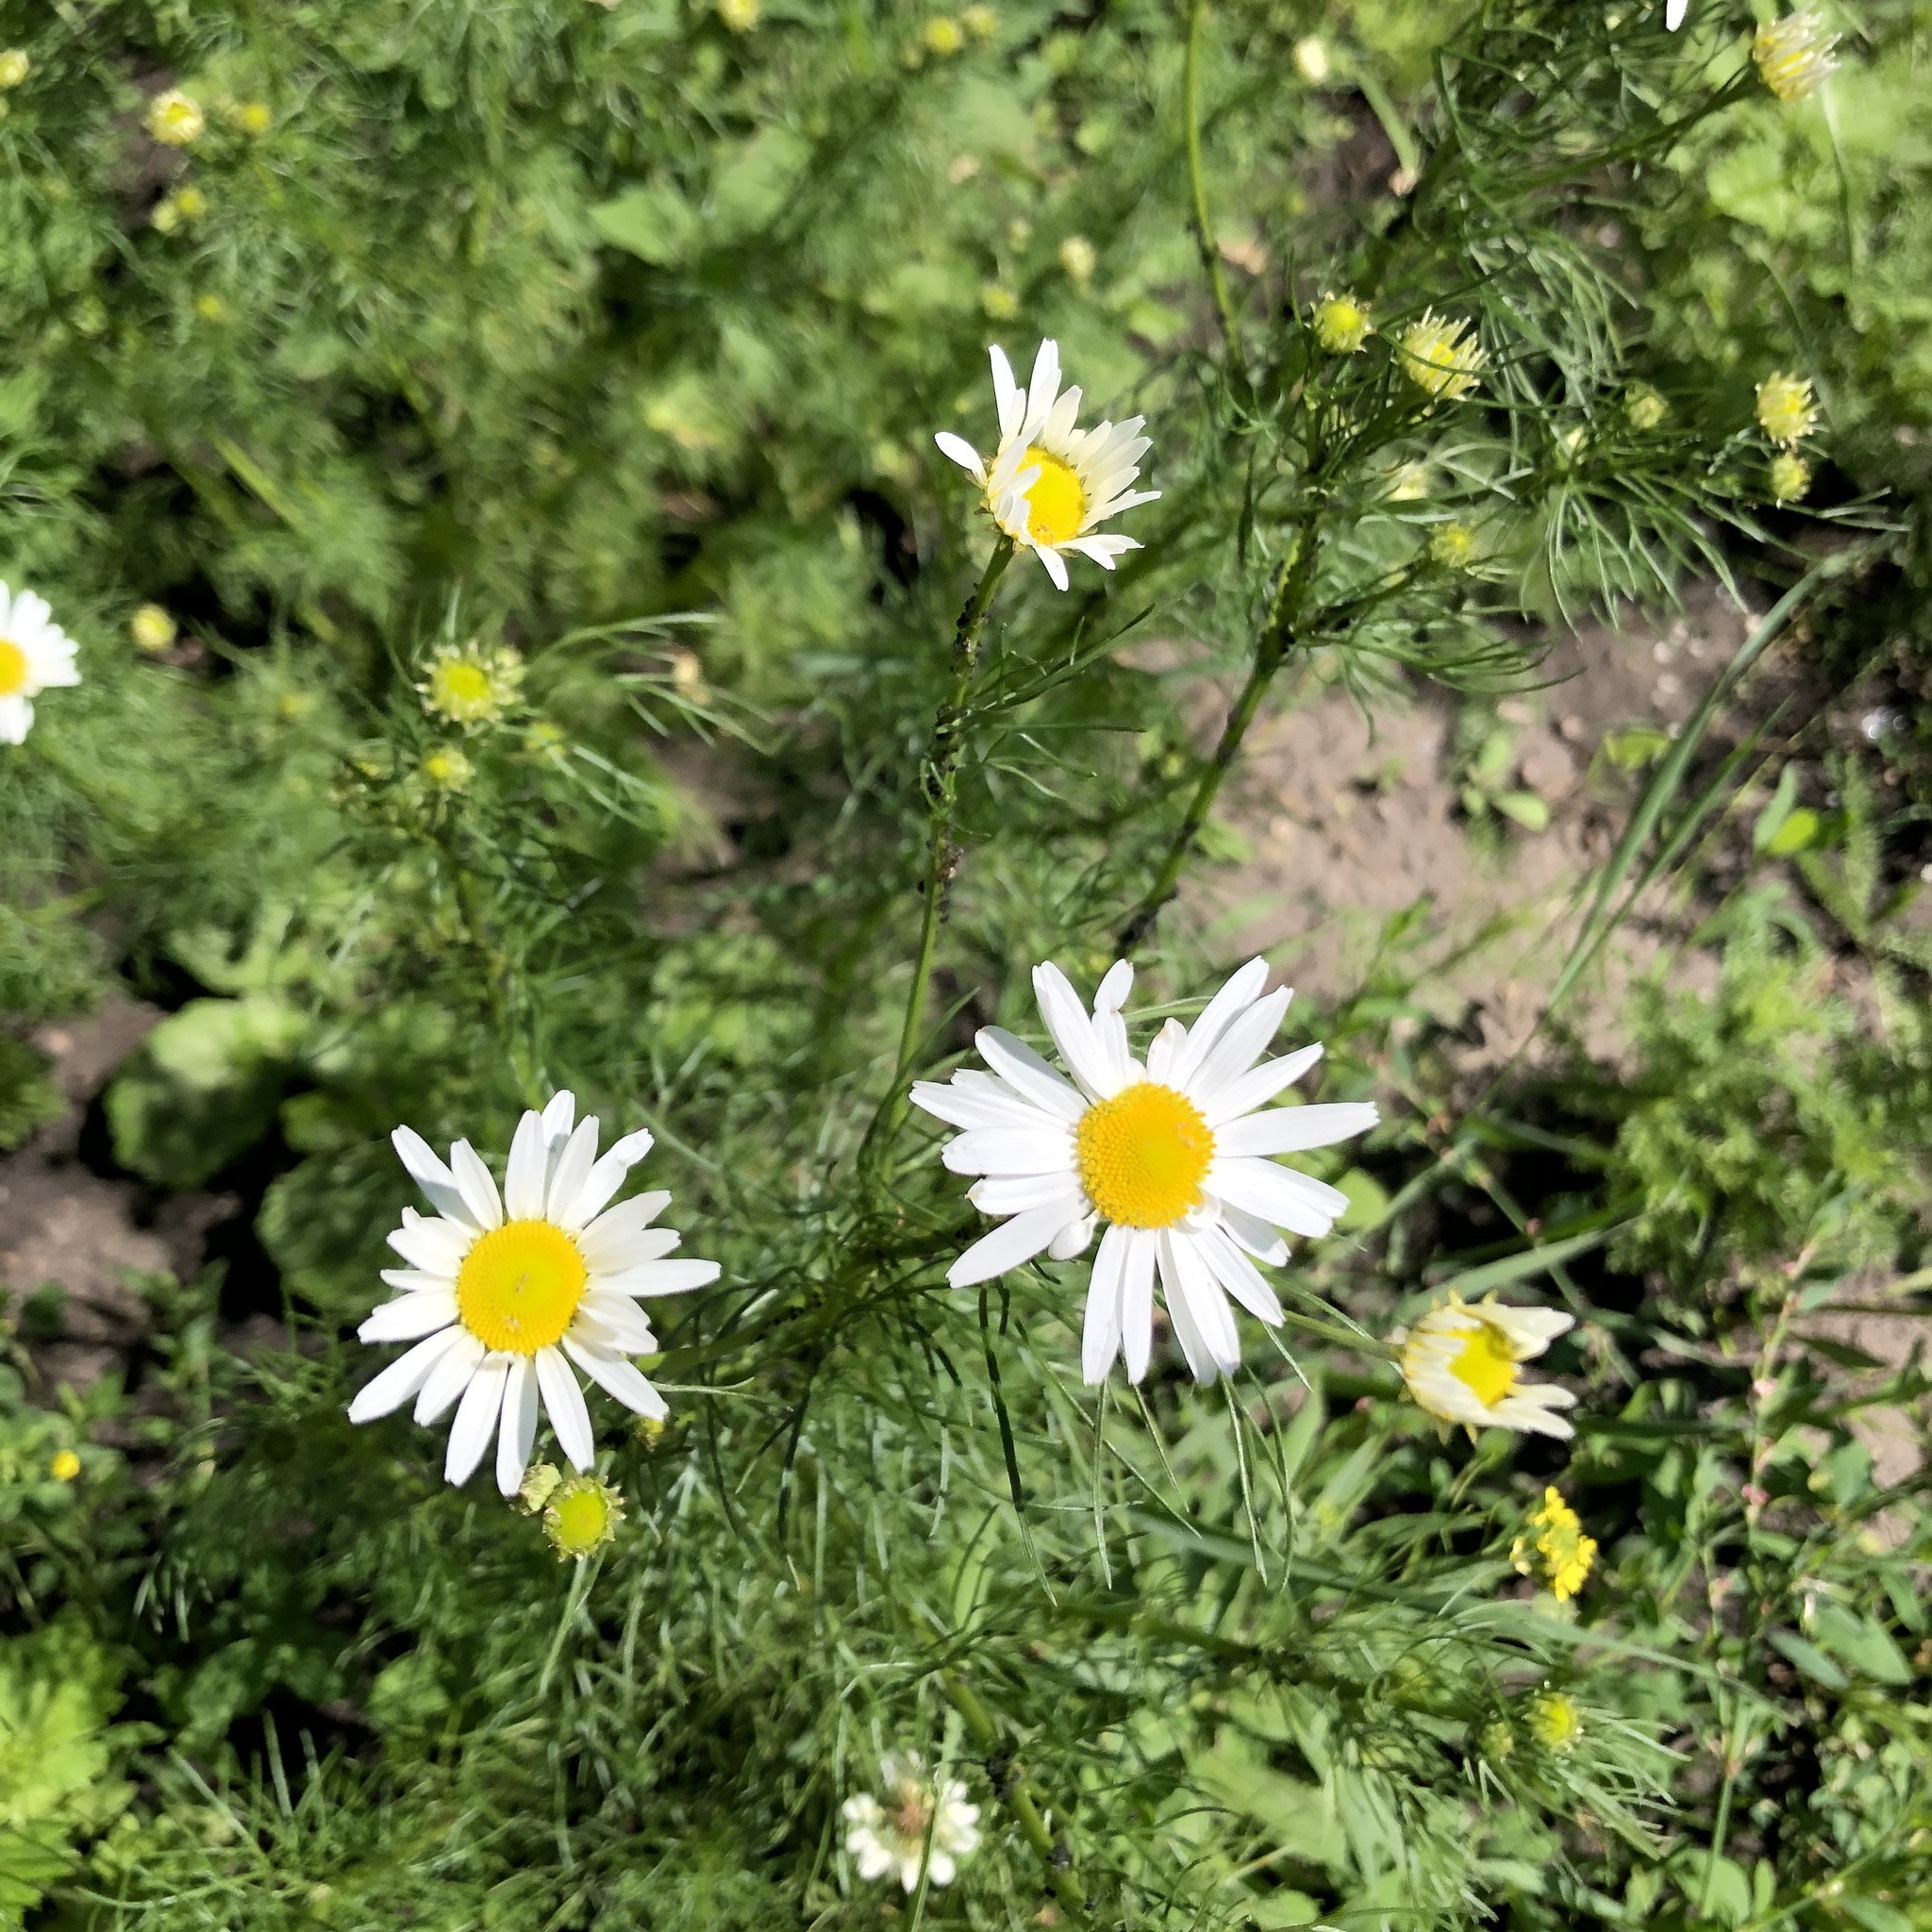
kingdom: Plantae
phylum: Tracheophyta
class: Magnoliopsida
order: Asterales
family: Asteraceae
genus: Tripleurospermum
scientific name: Tripleurospermum inodorum
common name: Scentless mayweed
